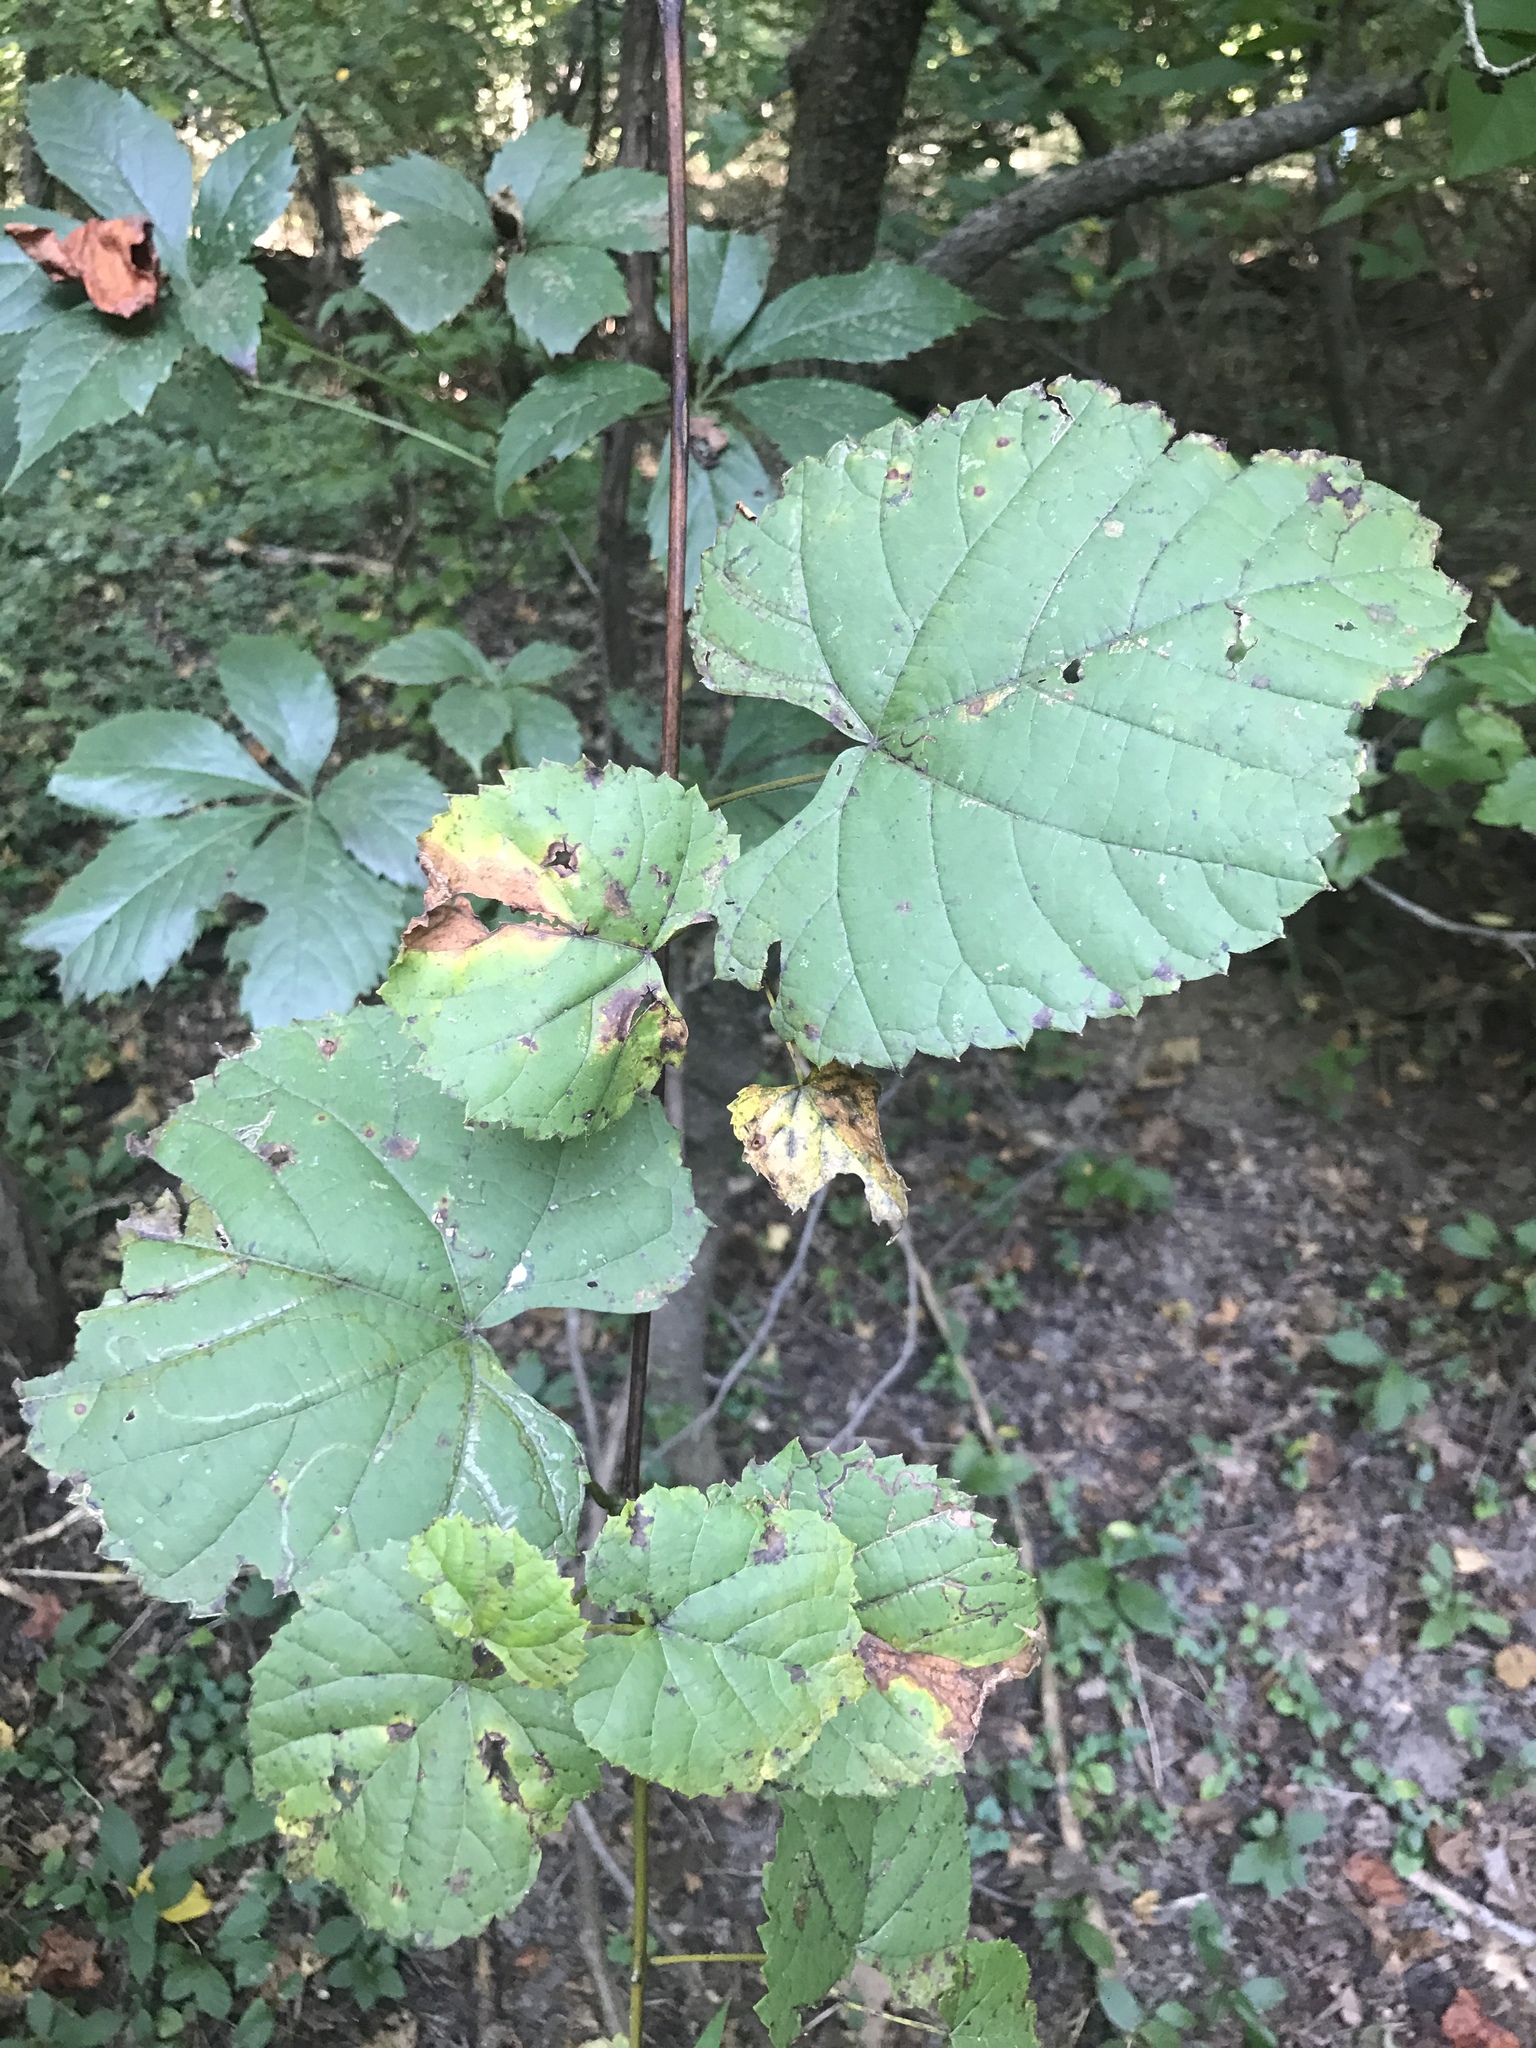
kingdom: Plantae
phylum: Tracheophyta
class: Magnoliopsida
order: Vitales
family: Vitaceae
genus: Vitis
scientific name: Vitis riparia
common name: Frost grape
